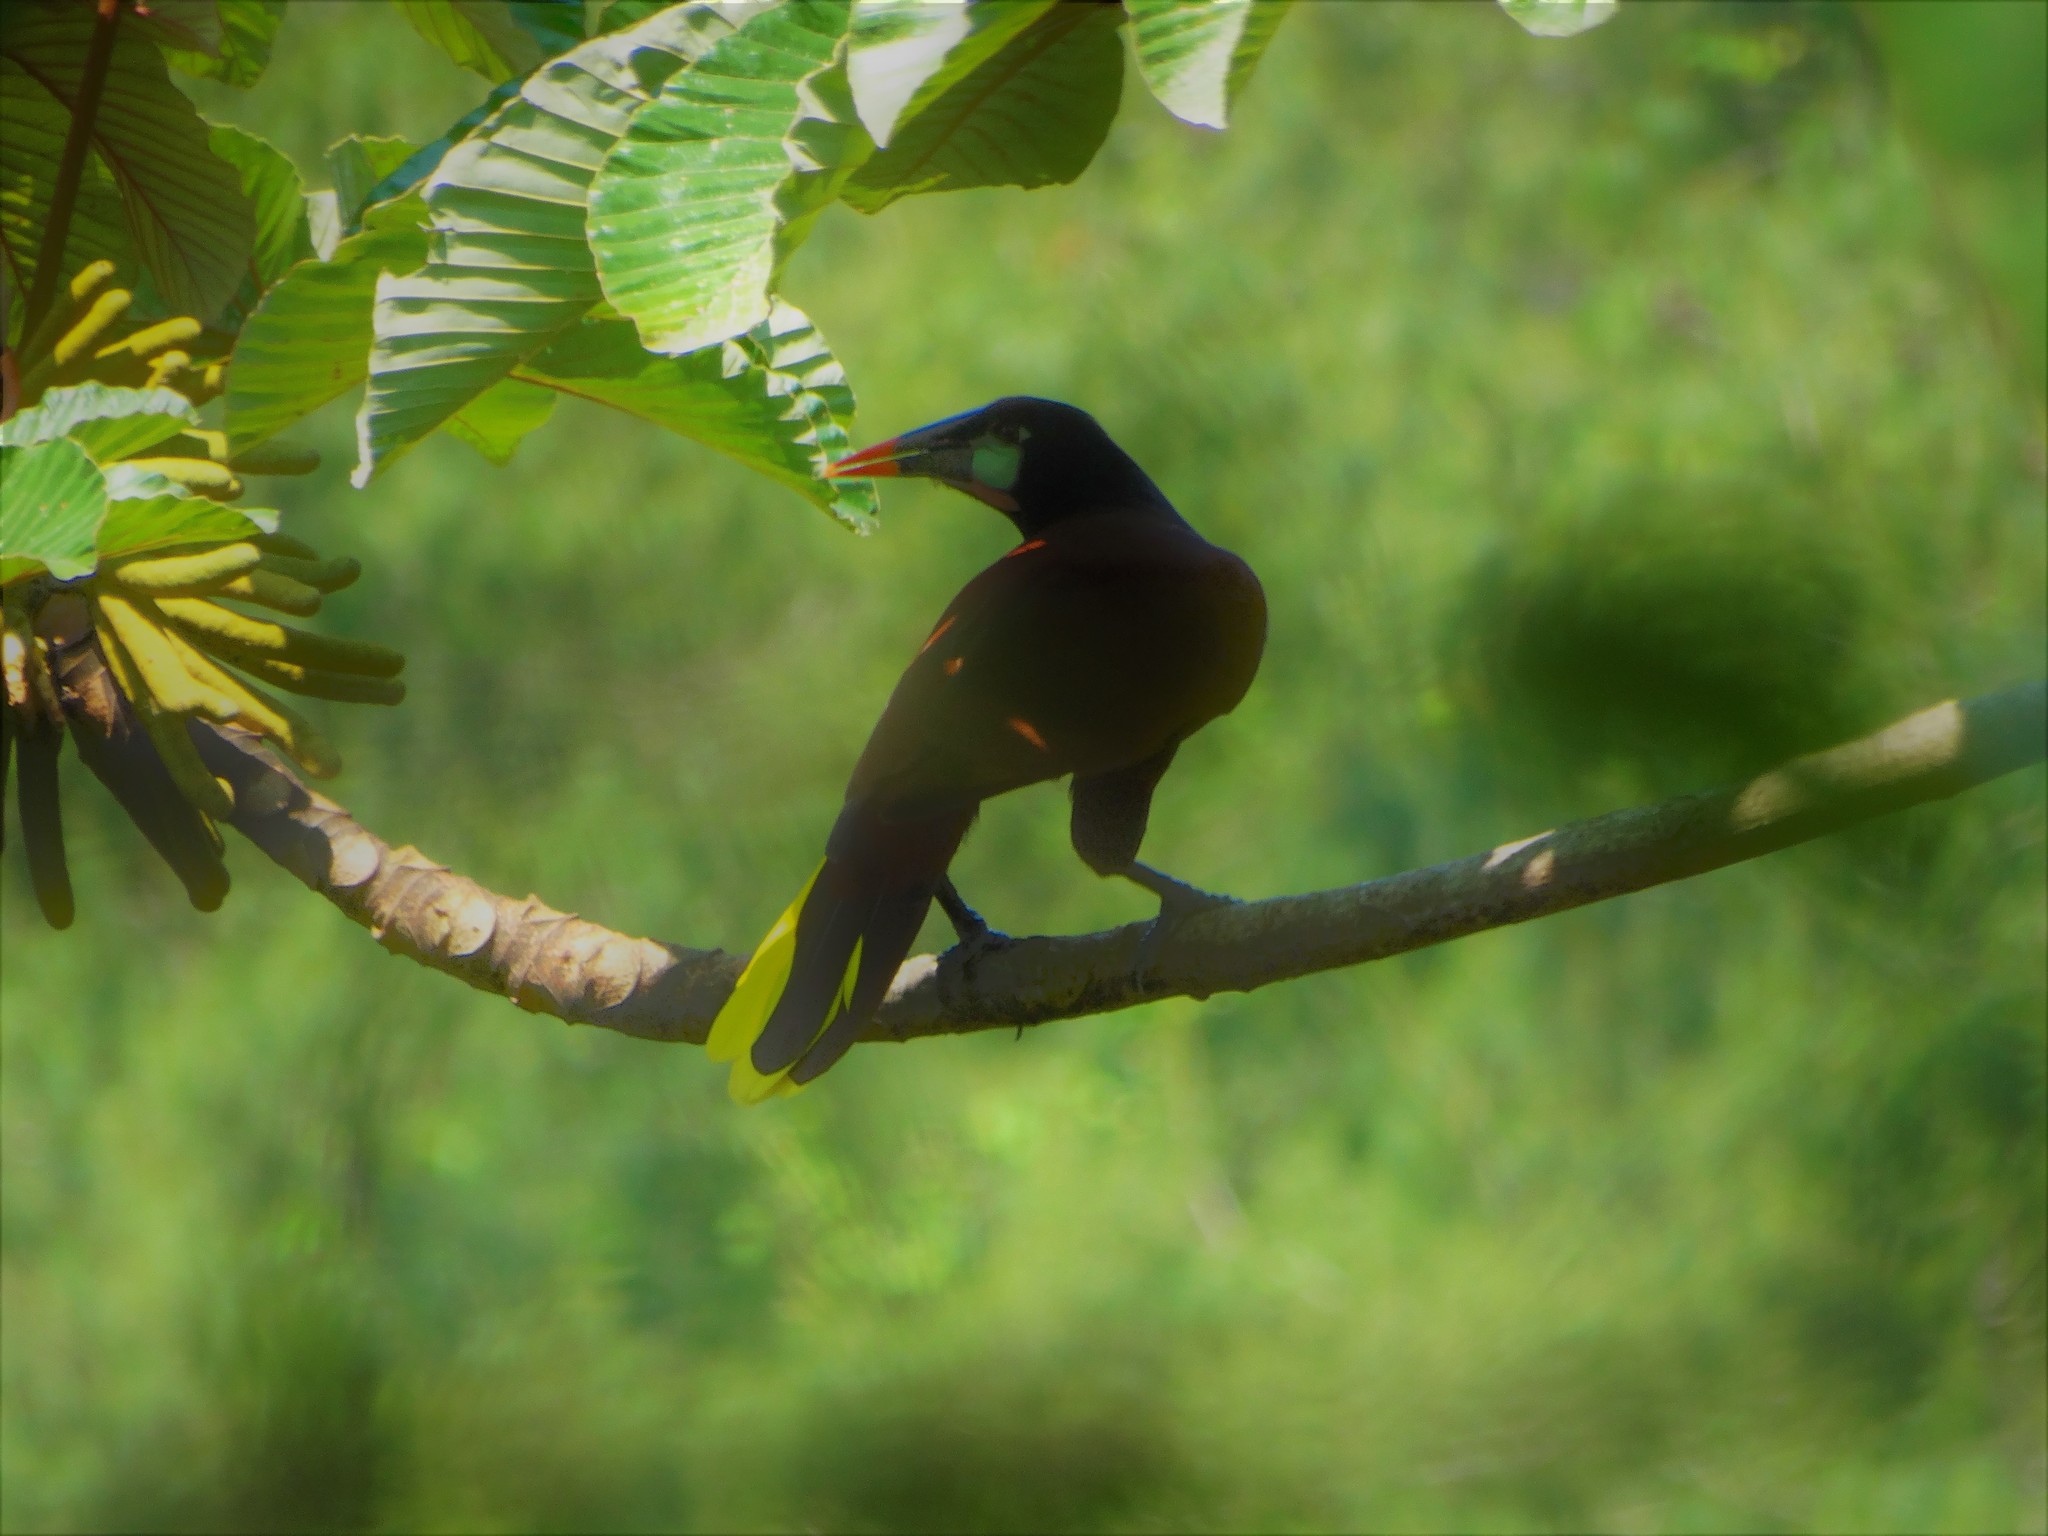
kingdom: Animalia
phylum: Chordata
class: Aves
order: Passeriformes
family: Icteridae
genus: Psarocolius
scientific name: Psarocolius montezuma
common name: Montezuma oropendola
